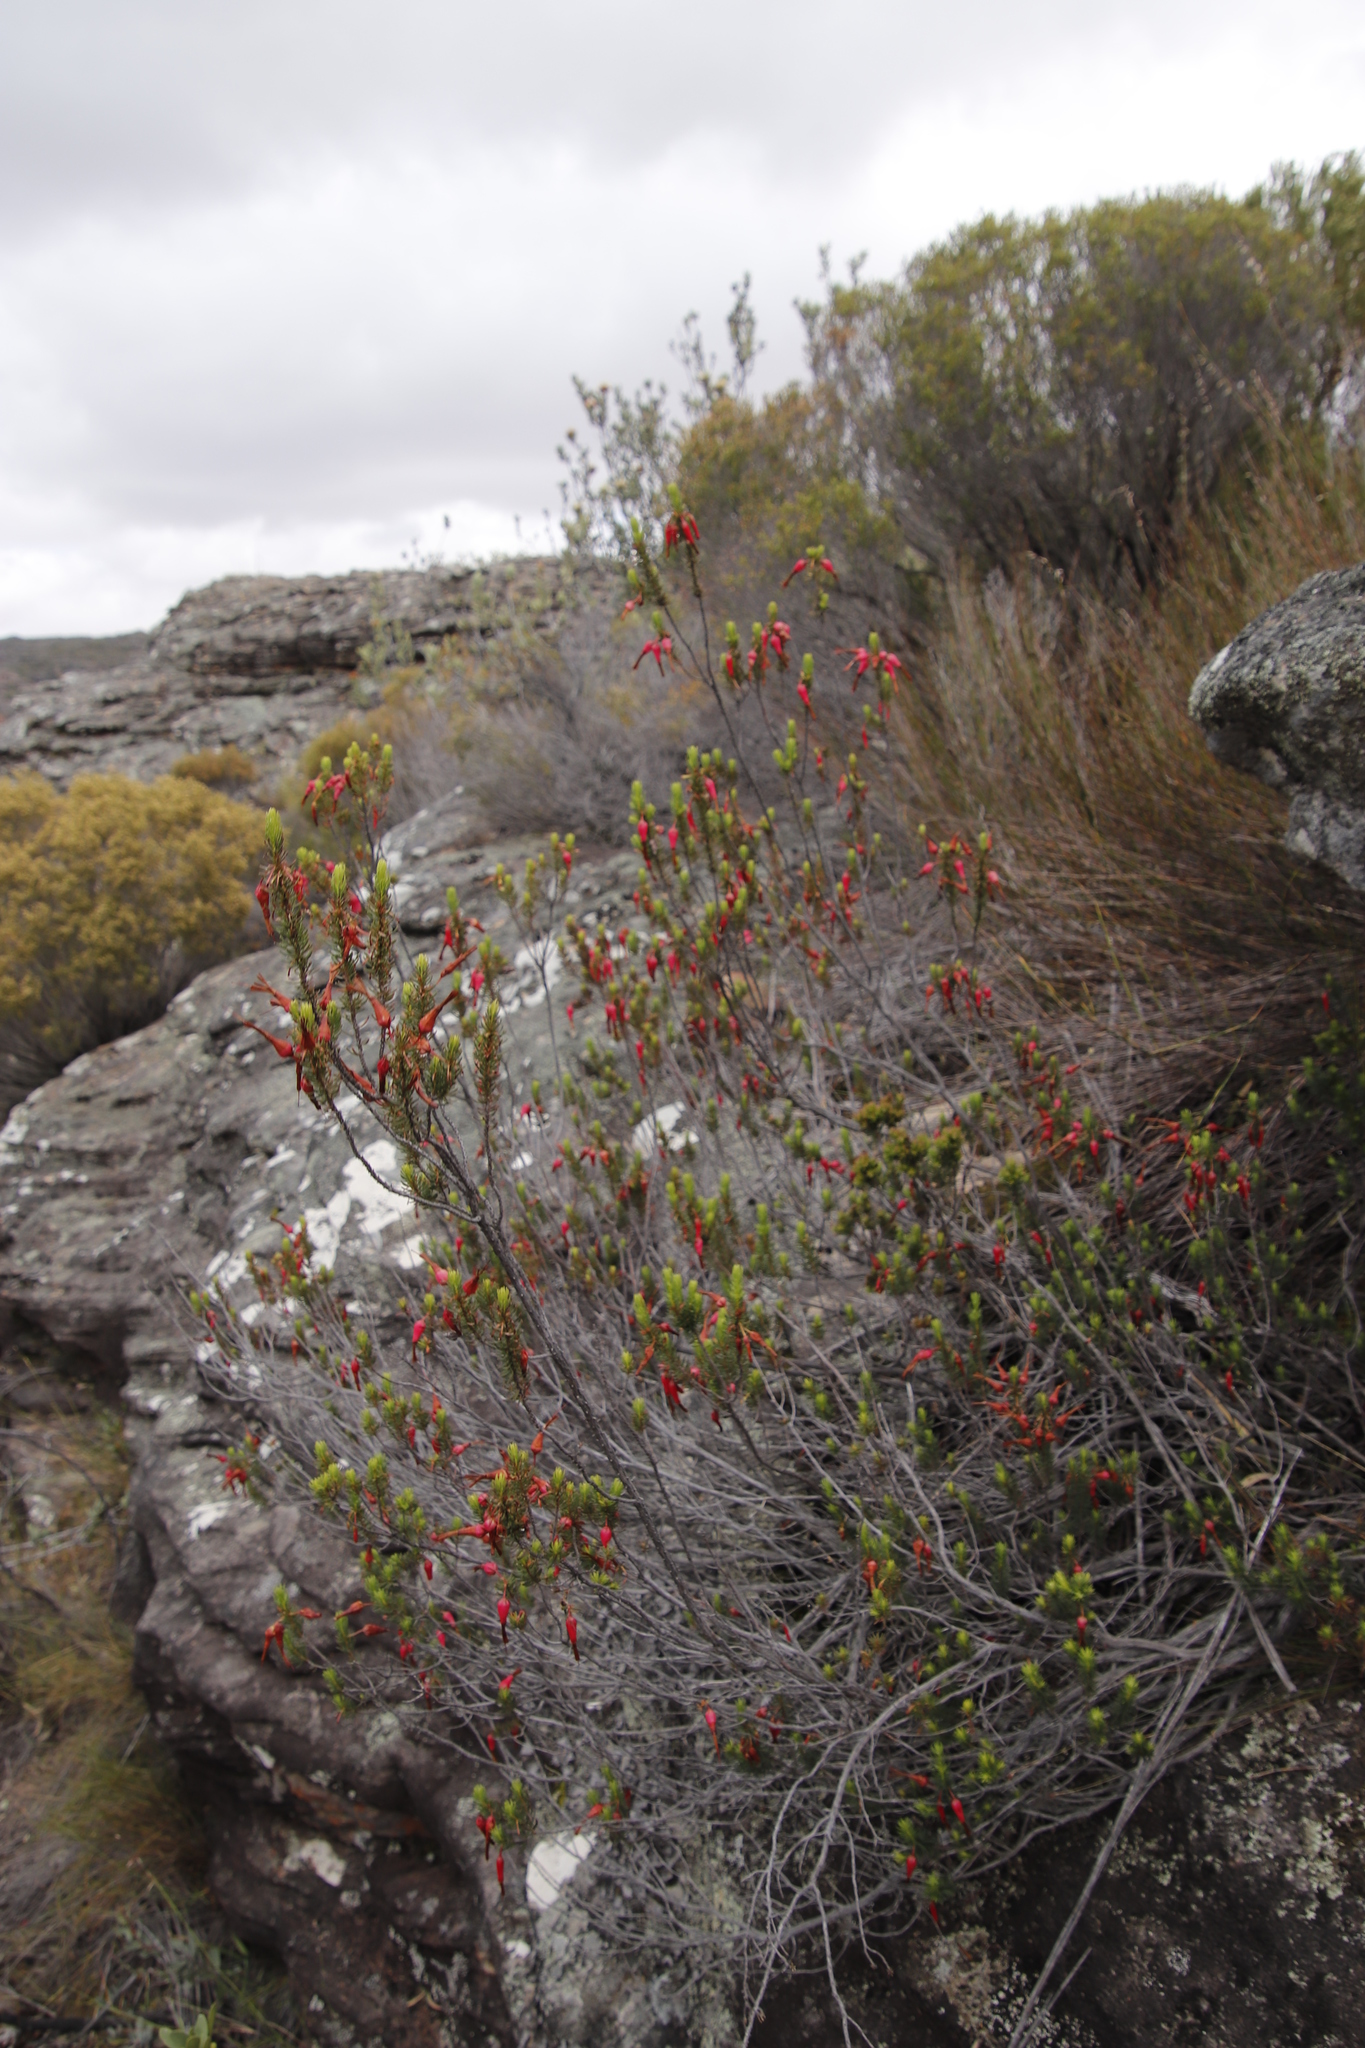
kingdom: Plantae
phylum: Tracheophyta
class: Magnoliopsida
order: Ericales
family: Ericaceae
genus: Erica
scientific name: Erica plukenetii
